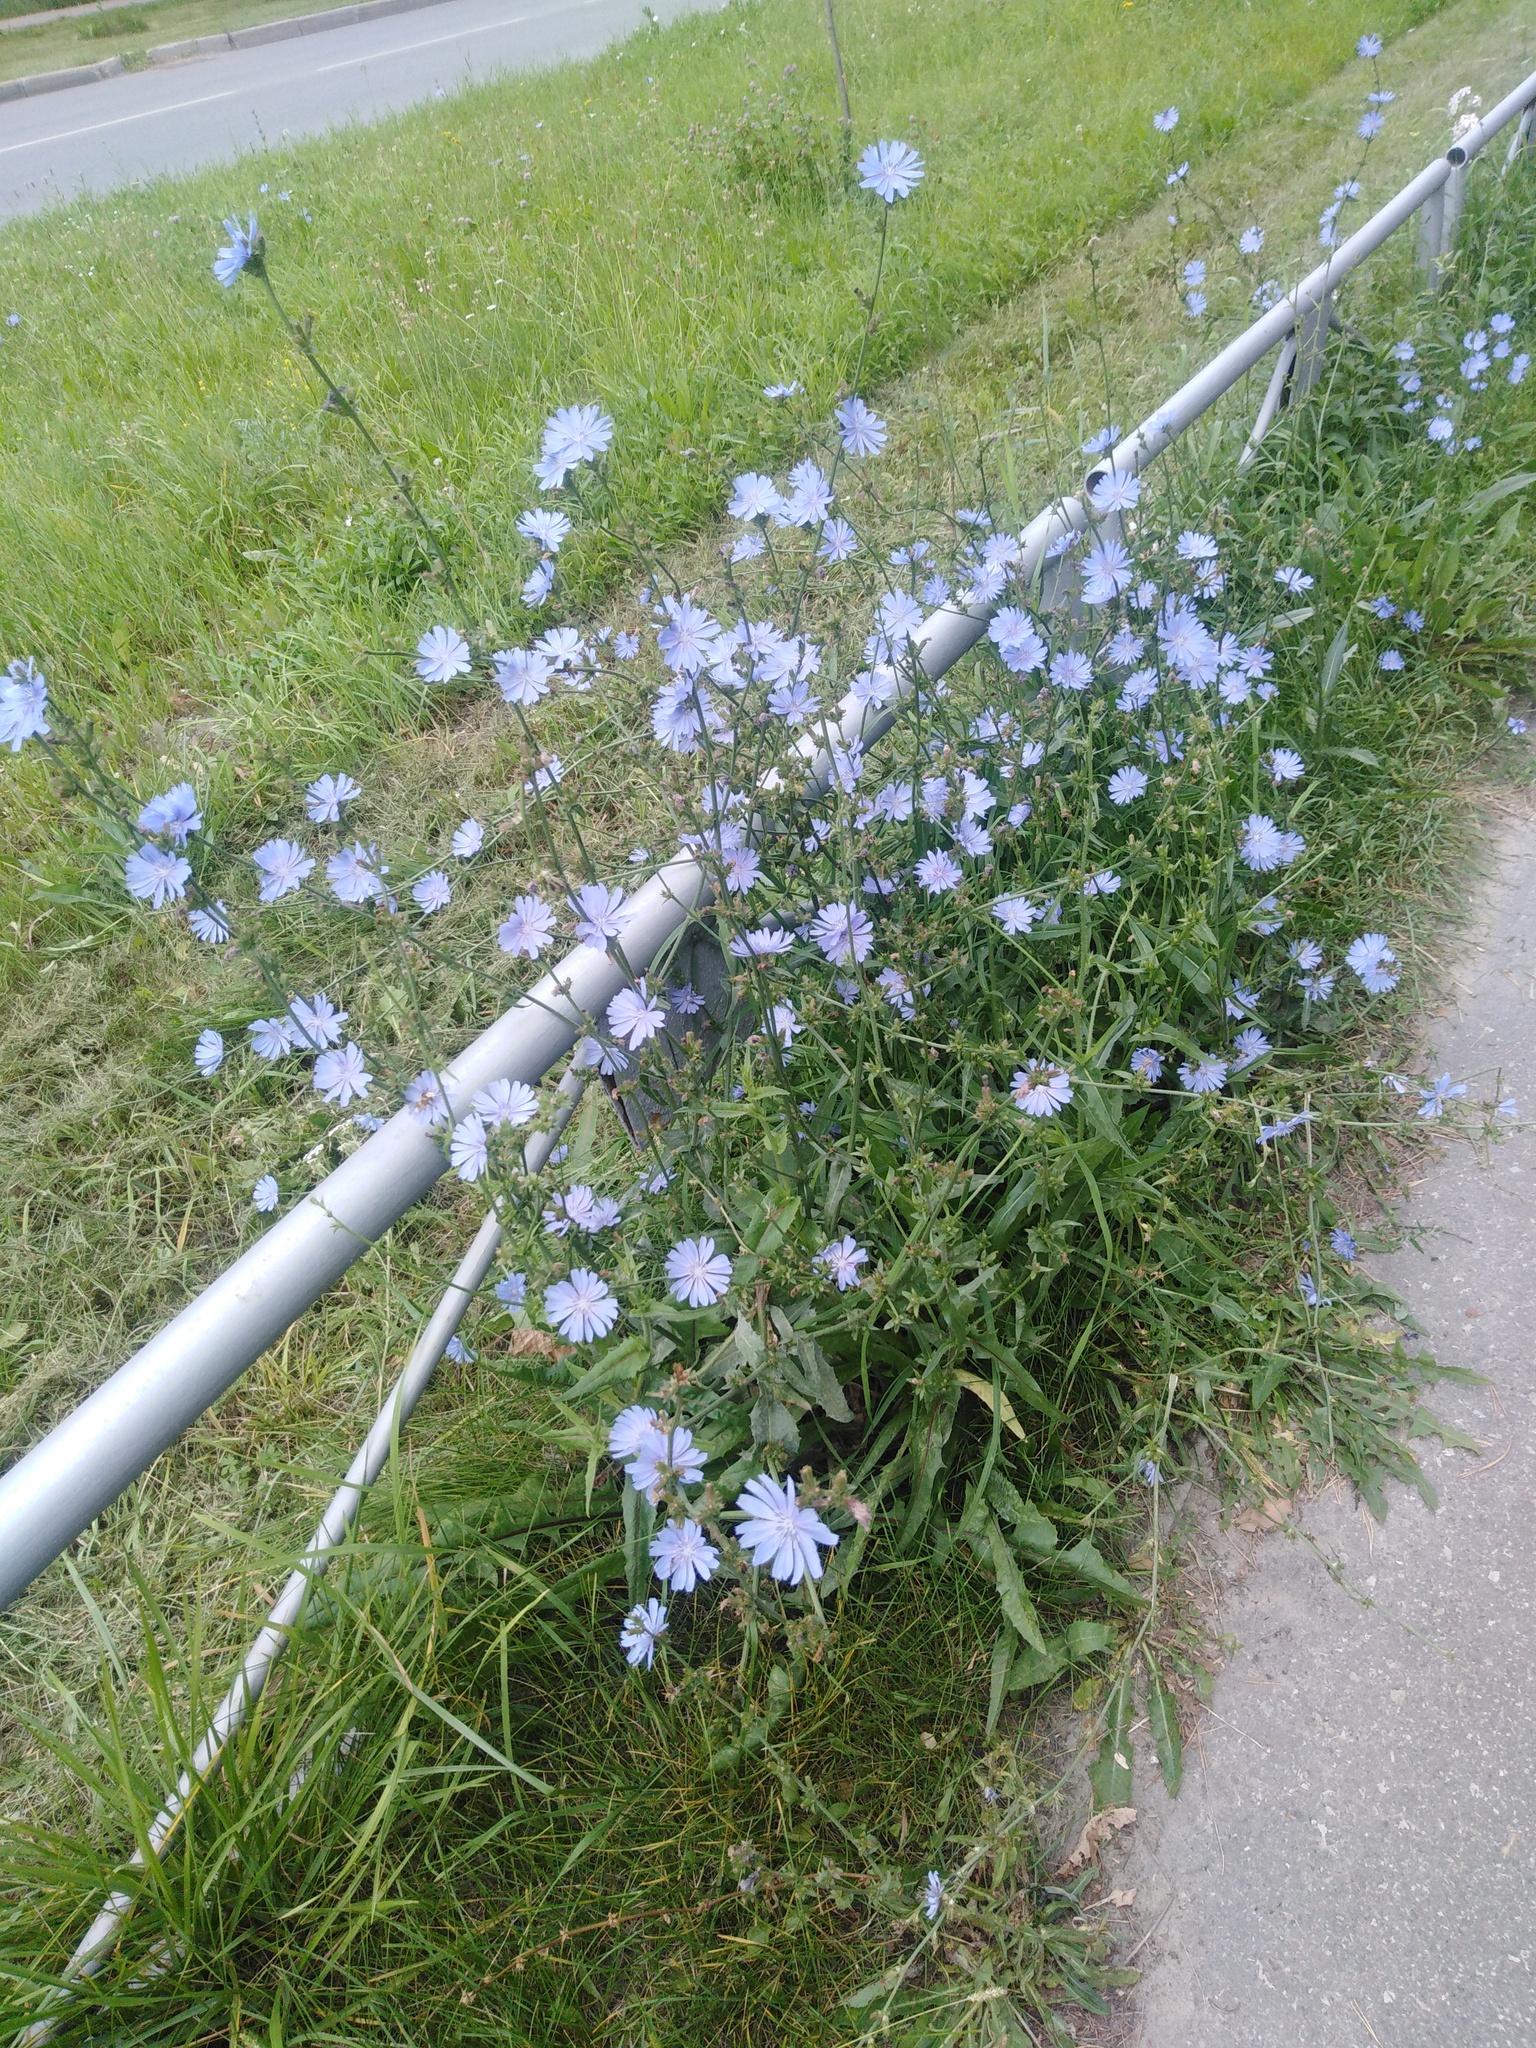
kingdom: Plantae
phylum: Tracheophyta
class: Magnoliopsida
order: Asterales
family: Asteraceae
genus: Cichorium
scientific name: Cichorium intybus
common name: Chicory
